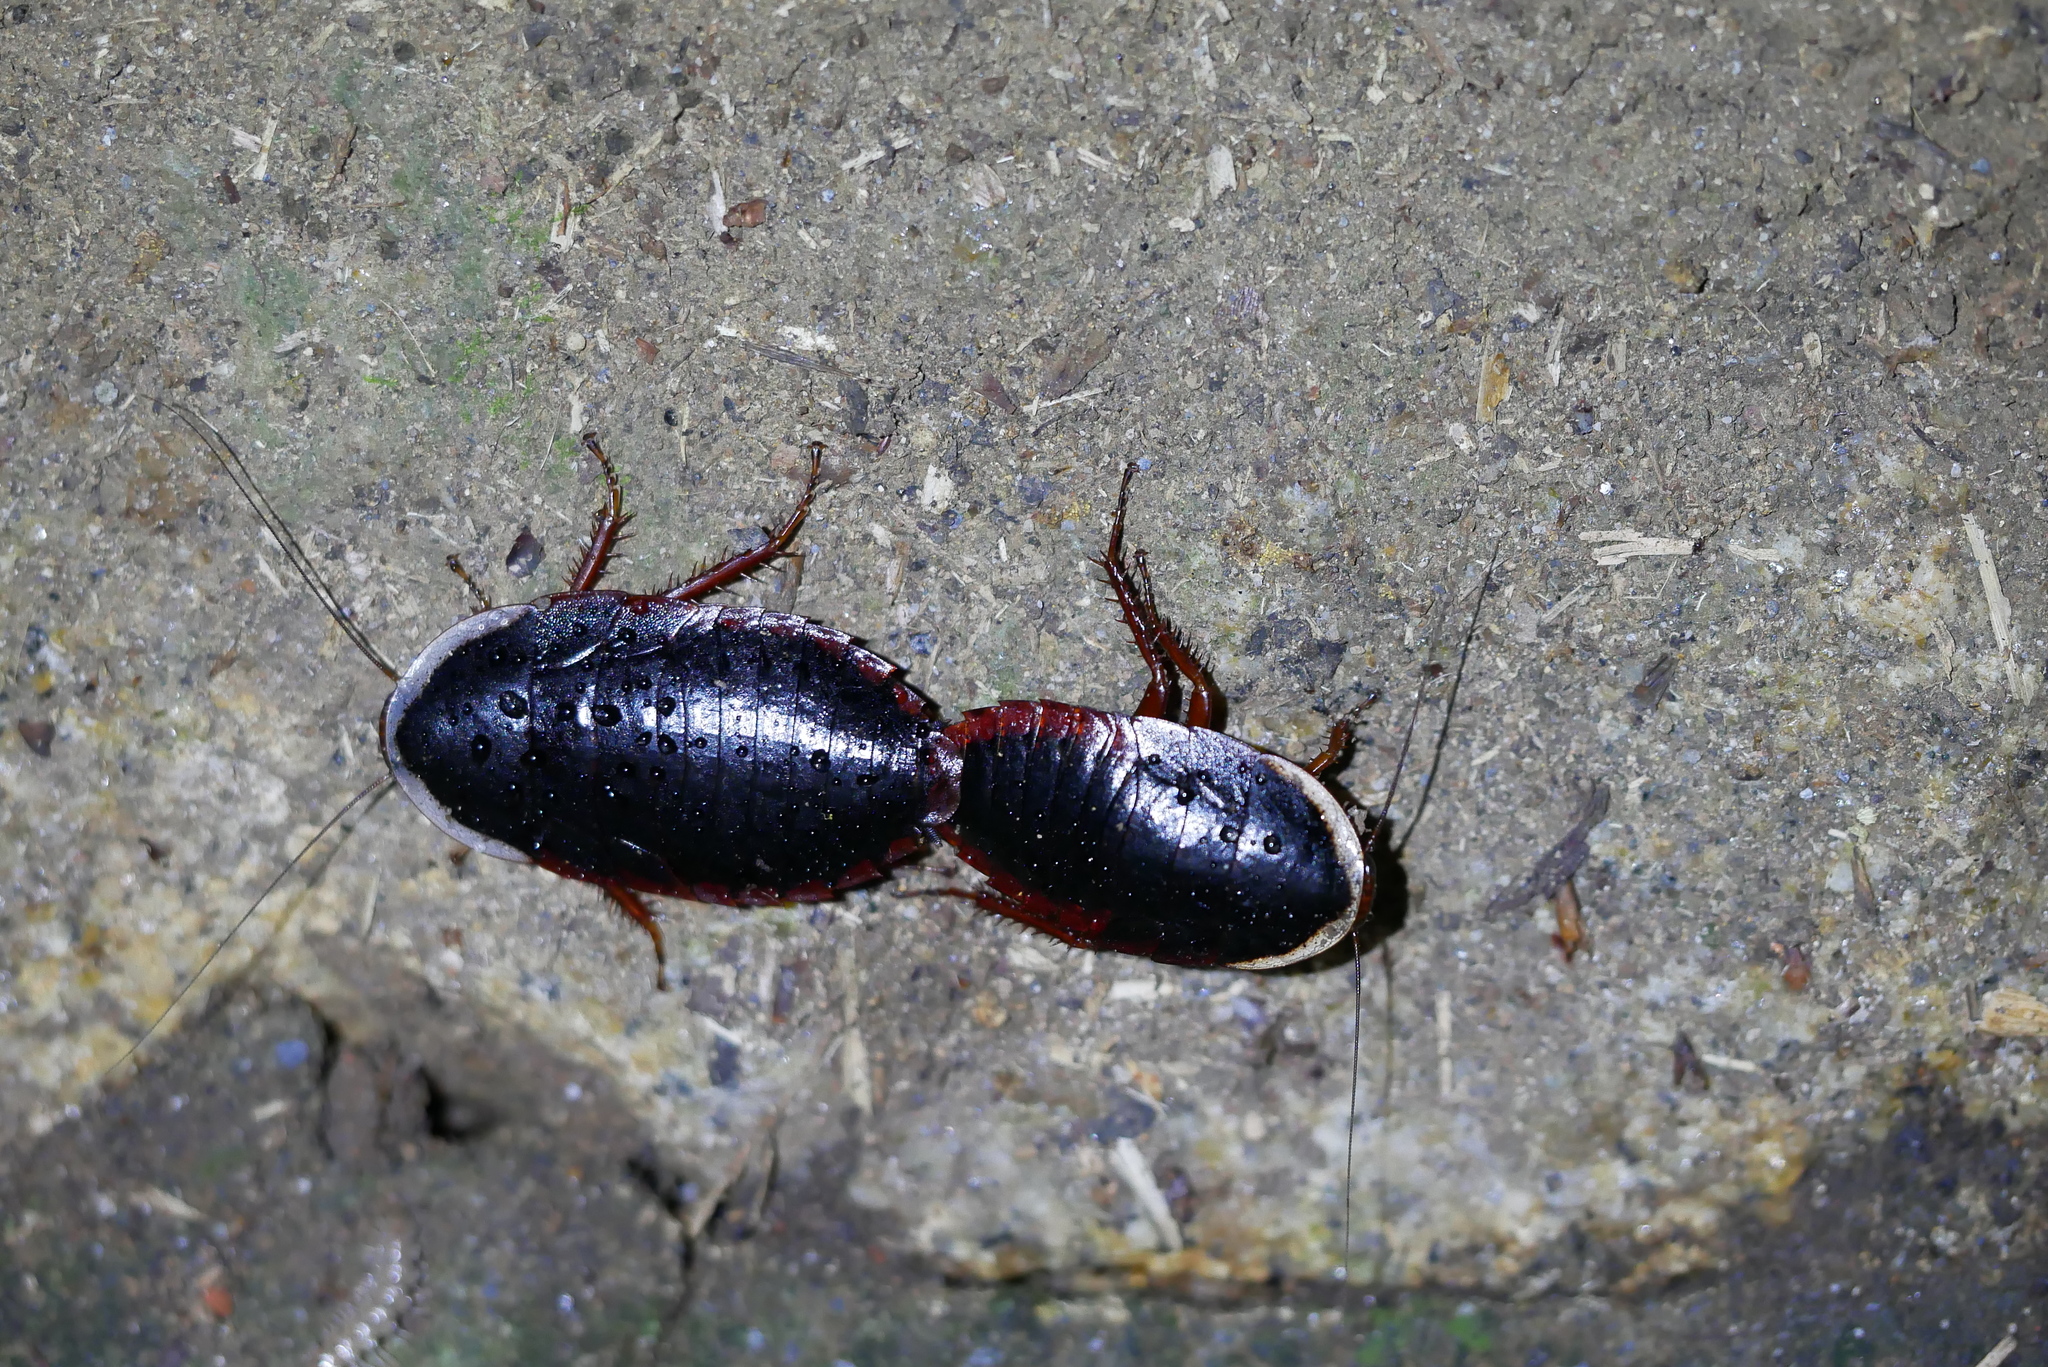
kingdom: Animalia
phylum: Arthropoda
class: Insecta
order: Blattodea
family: Blaberidae
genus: Opisthoplatia
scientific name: Opisthoplatia orientalis
